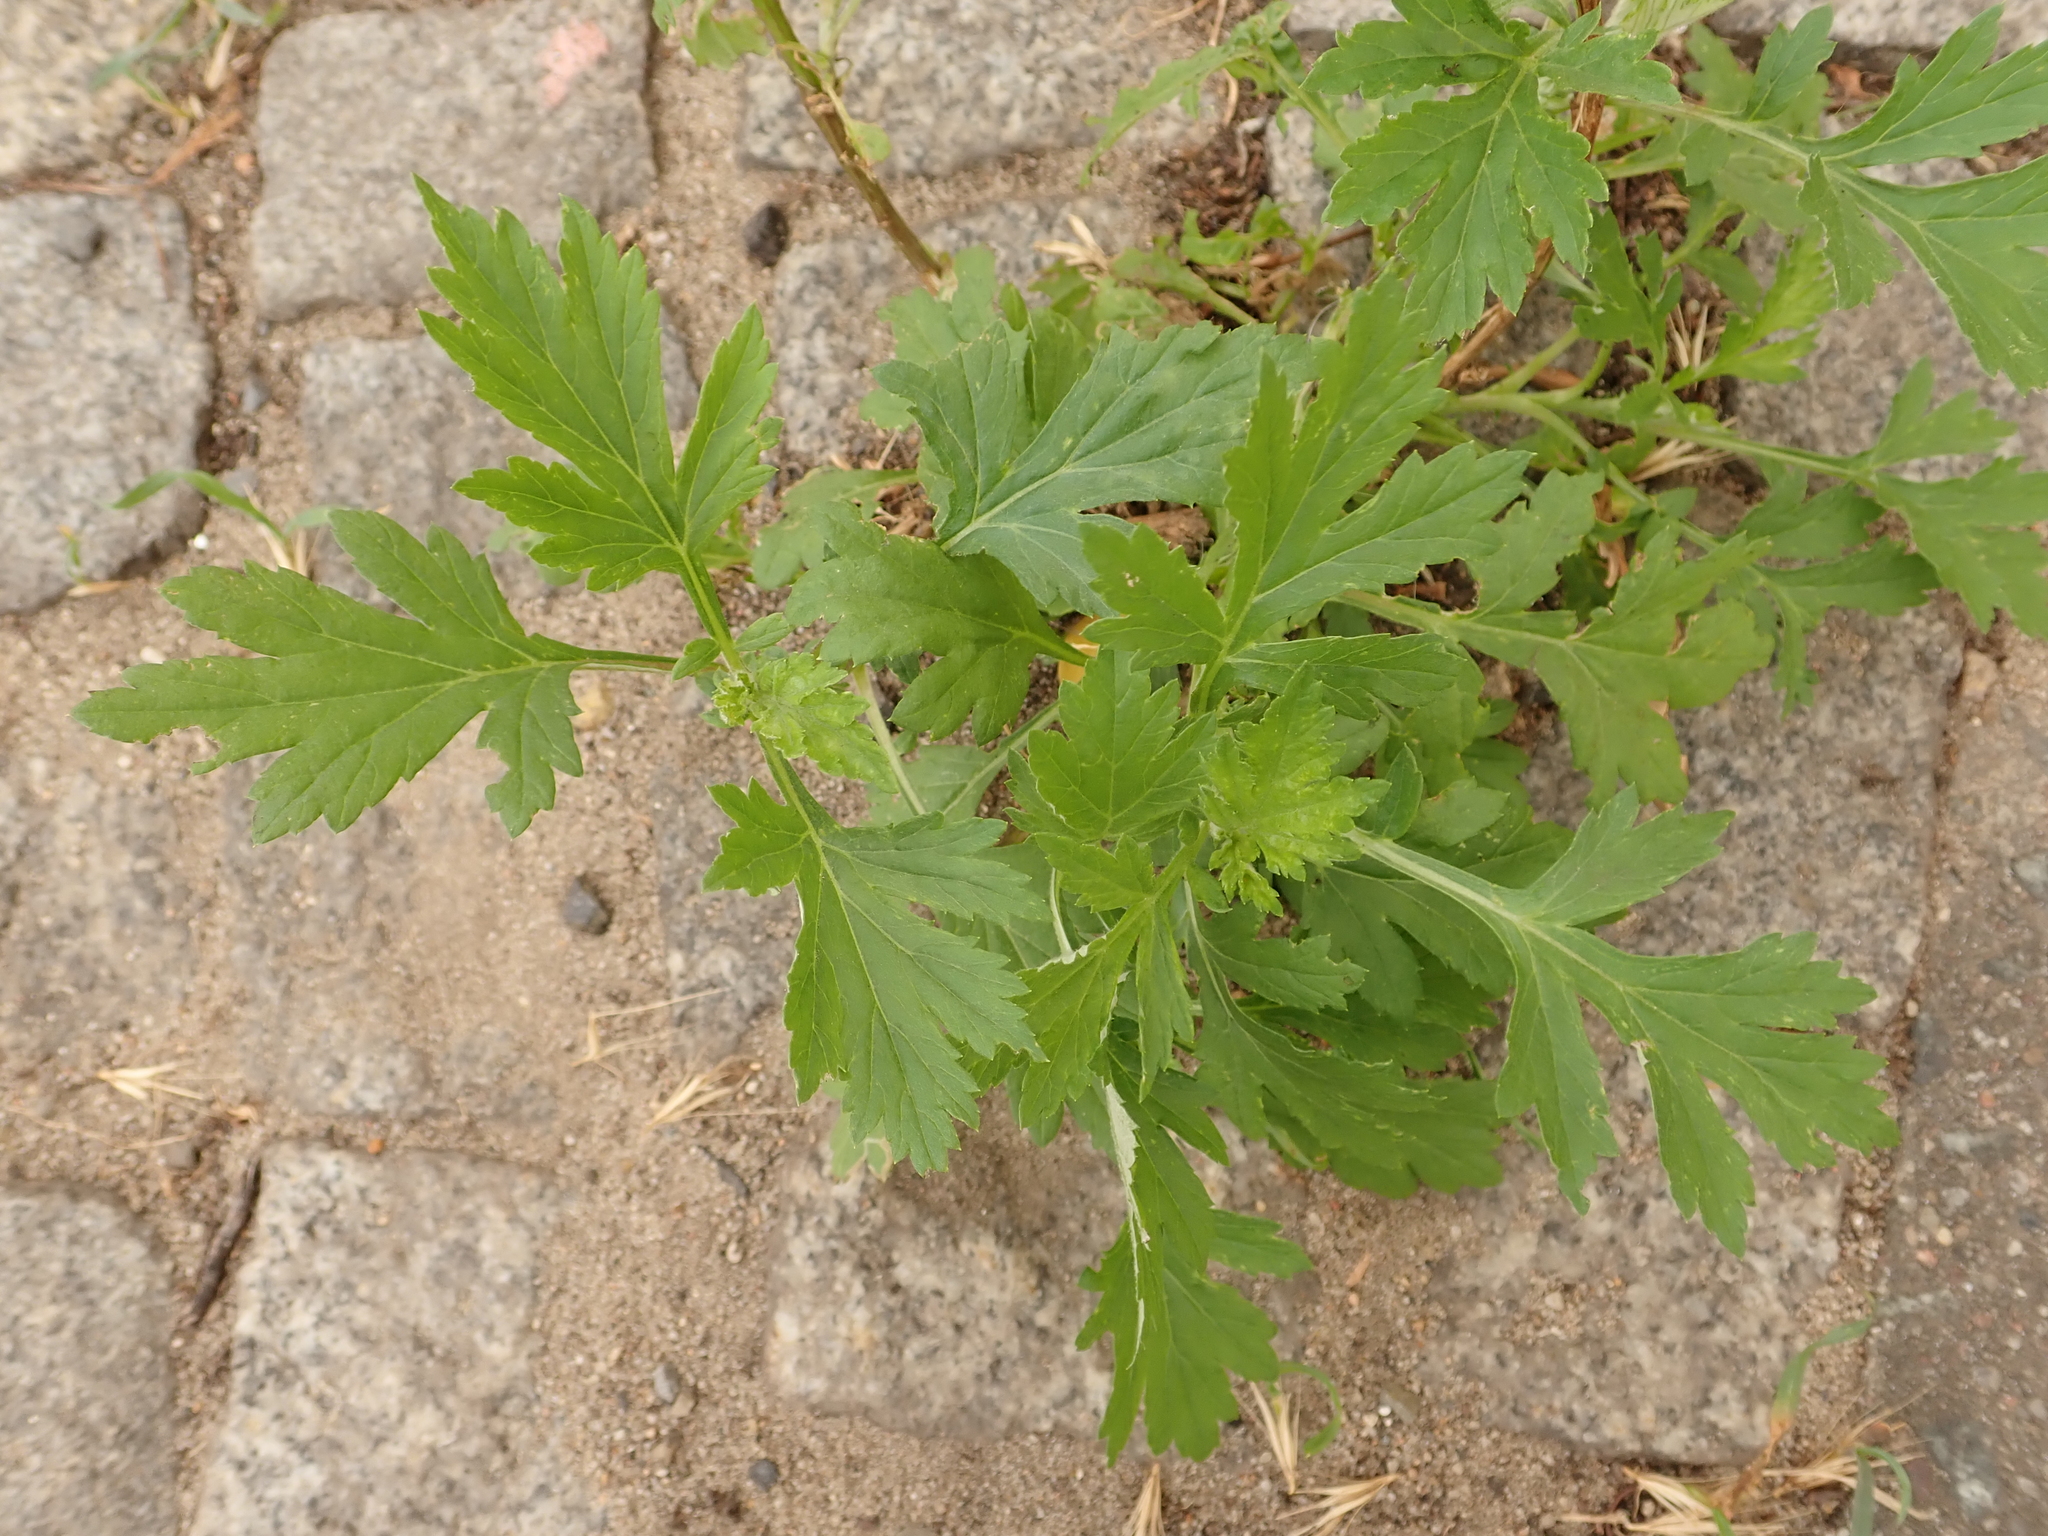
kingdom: Plantae
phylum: Tracheophyta
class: Magnoliopsida
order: Asterales
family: Asteraceae
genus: Artemisia
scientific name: Artemisia vulgaris
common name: Mugwort
